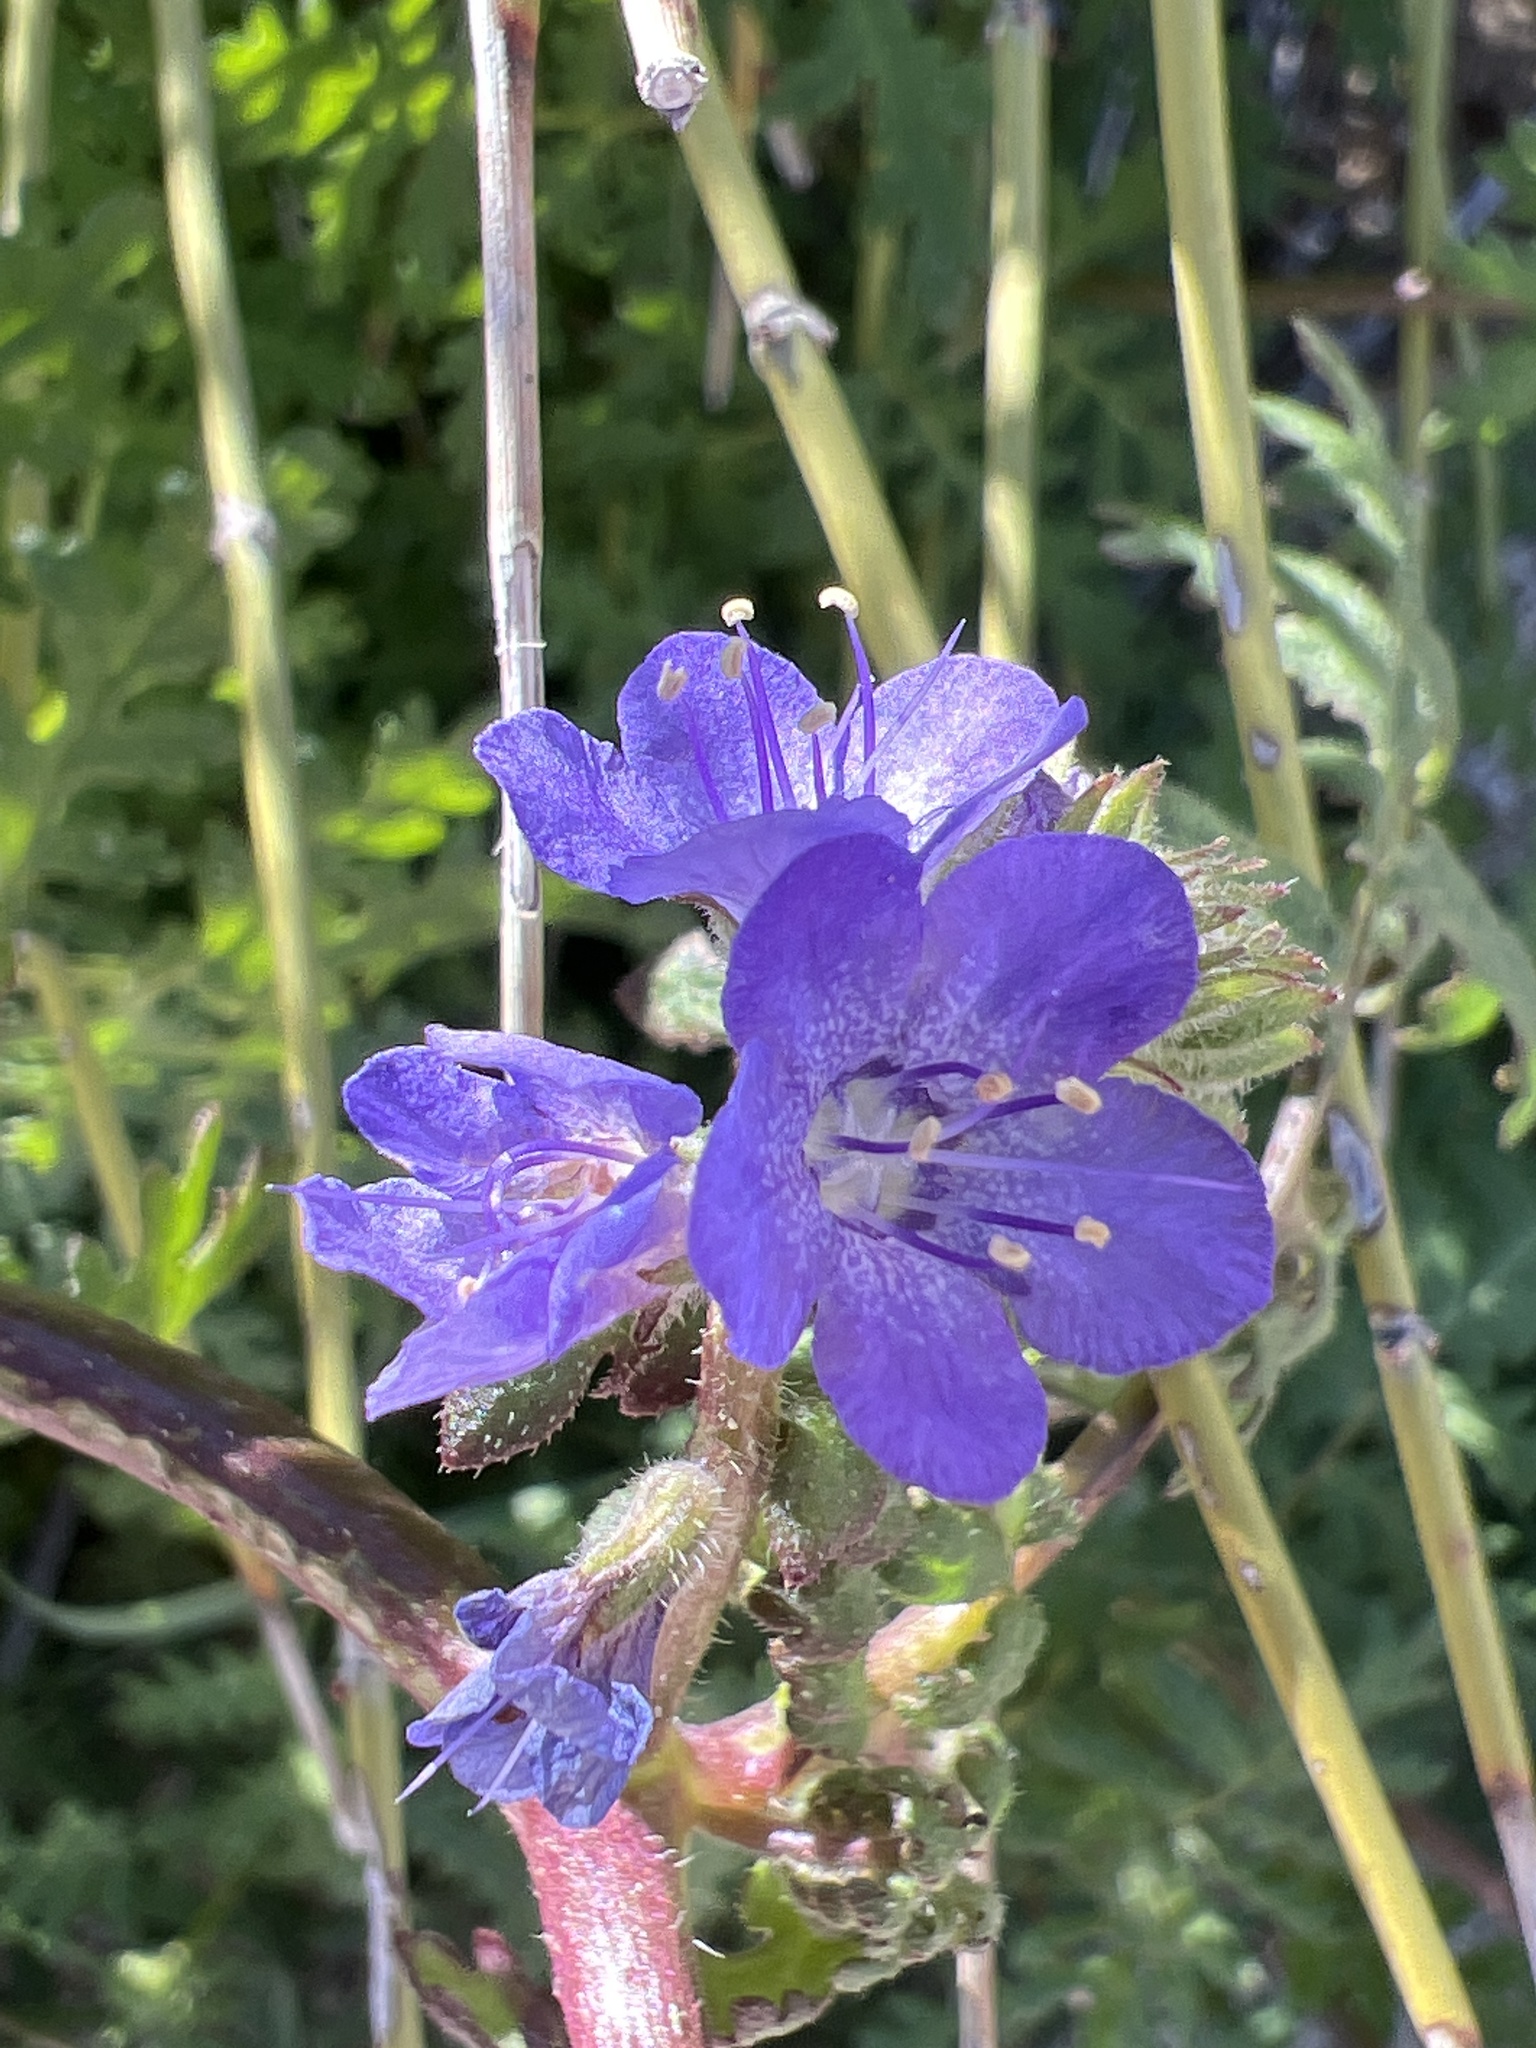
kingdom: Plantae
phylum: Tracheophyta
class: Magnoliopsida
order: Boraginales
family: Hydrophyllaceae
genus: Phacelia
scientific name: Phacelia distans
